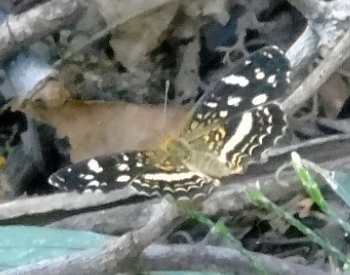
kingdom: Animalia
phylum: Arthropoda
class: Insecta
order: Lepidoptera
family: Nymphalidae
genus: Anthanassa
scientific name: Anthanassa tulcis
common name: Pale-banded crescent
